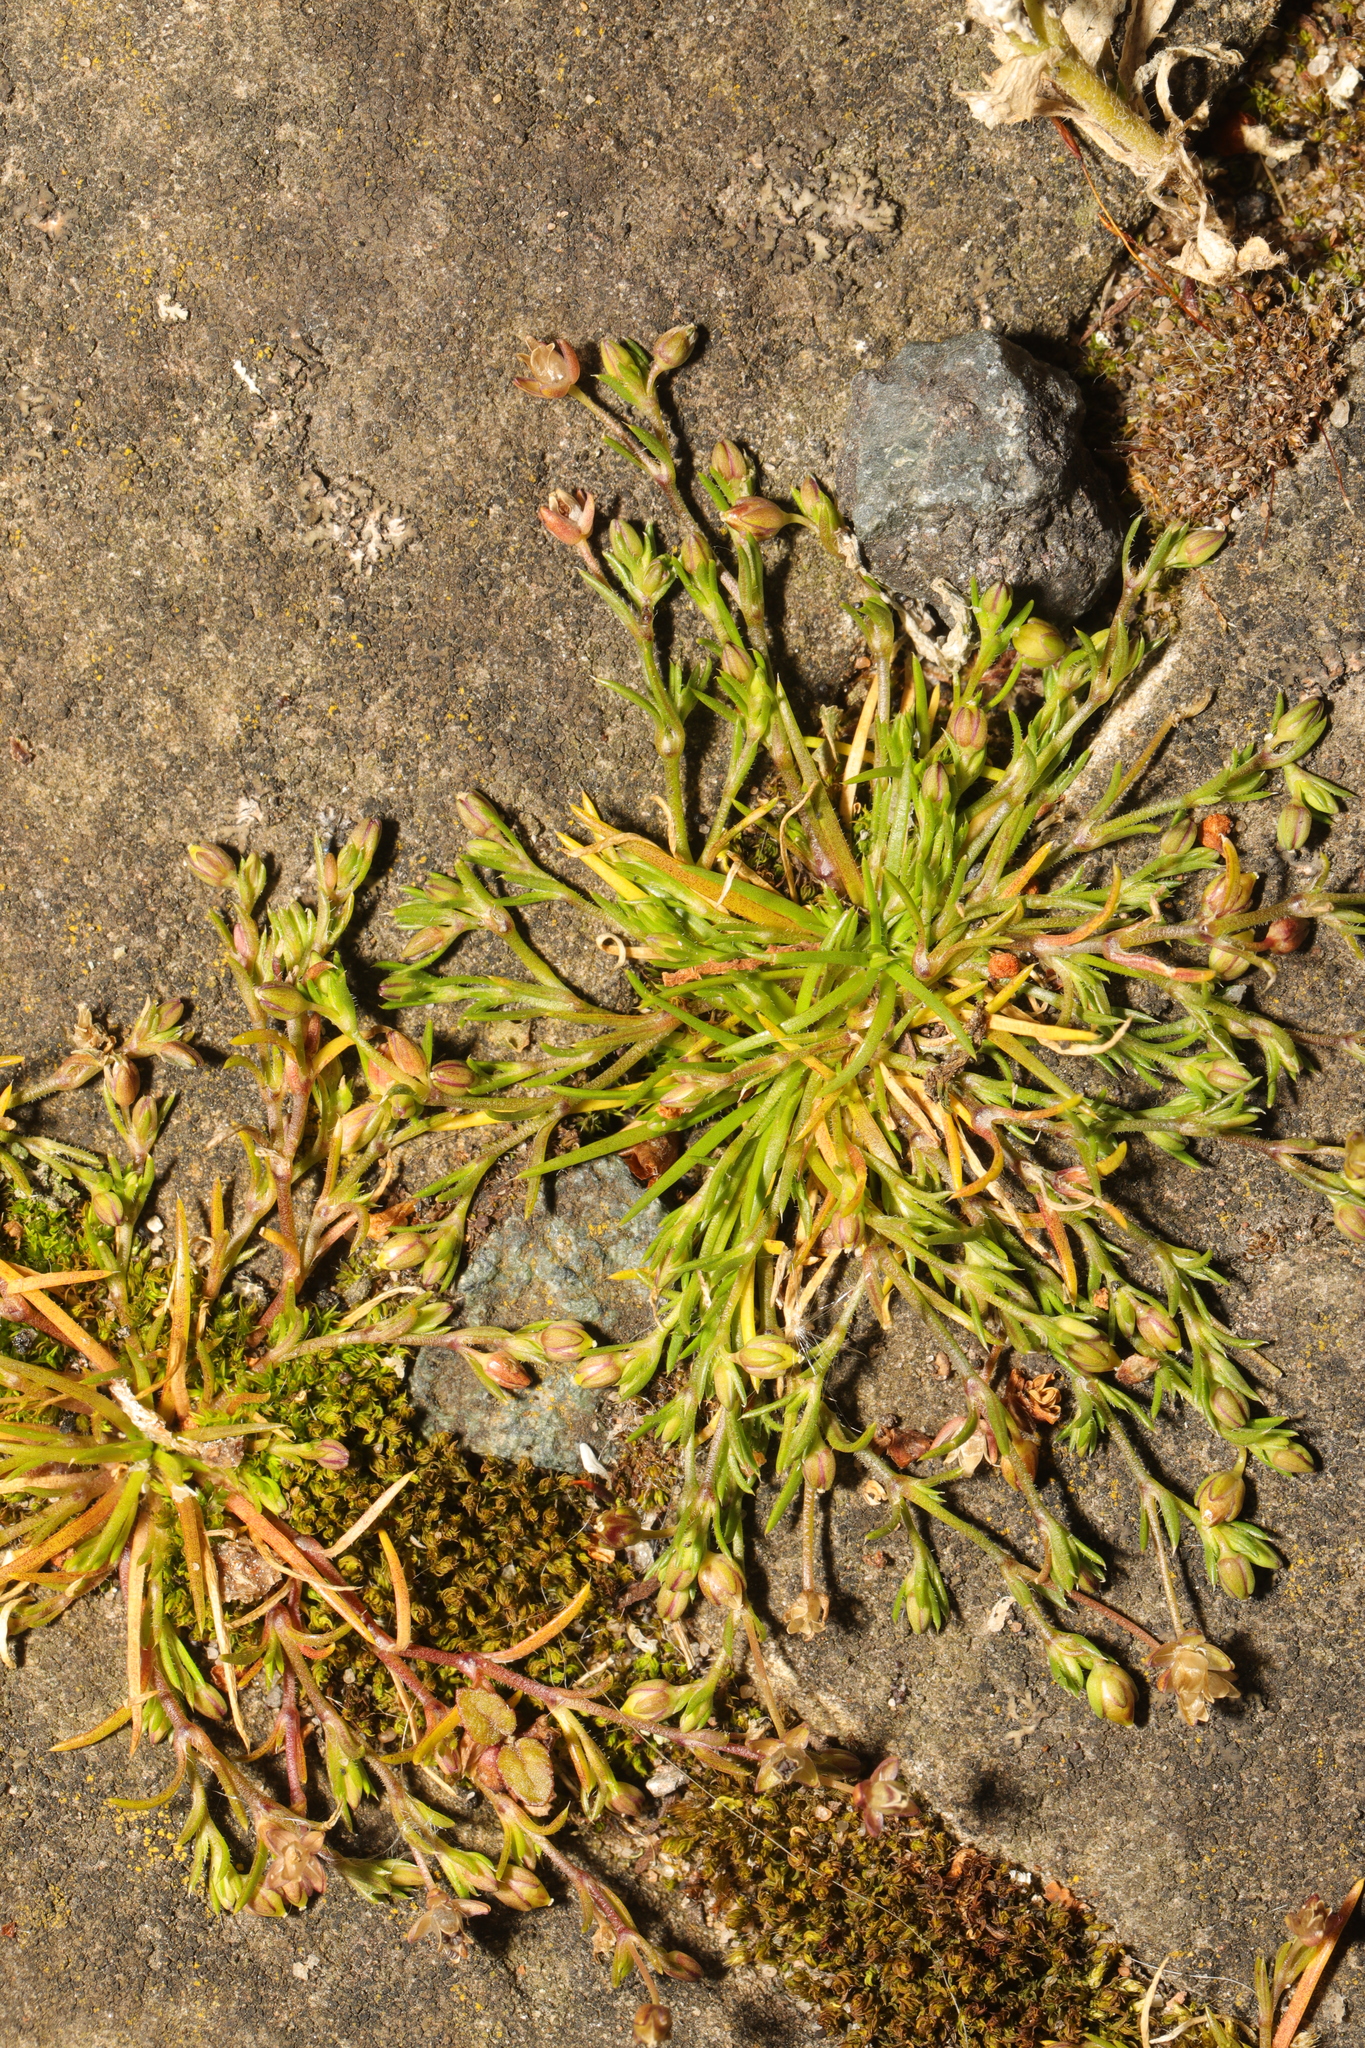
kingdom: Plantae
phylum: Tracheophyta
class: Magnoliopsida
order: Caryophyllales
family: Caryophyllaceae
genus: Sagina
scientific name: Sagina procumbens
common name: Procumbent pearlwort
